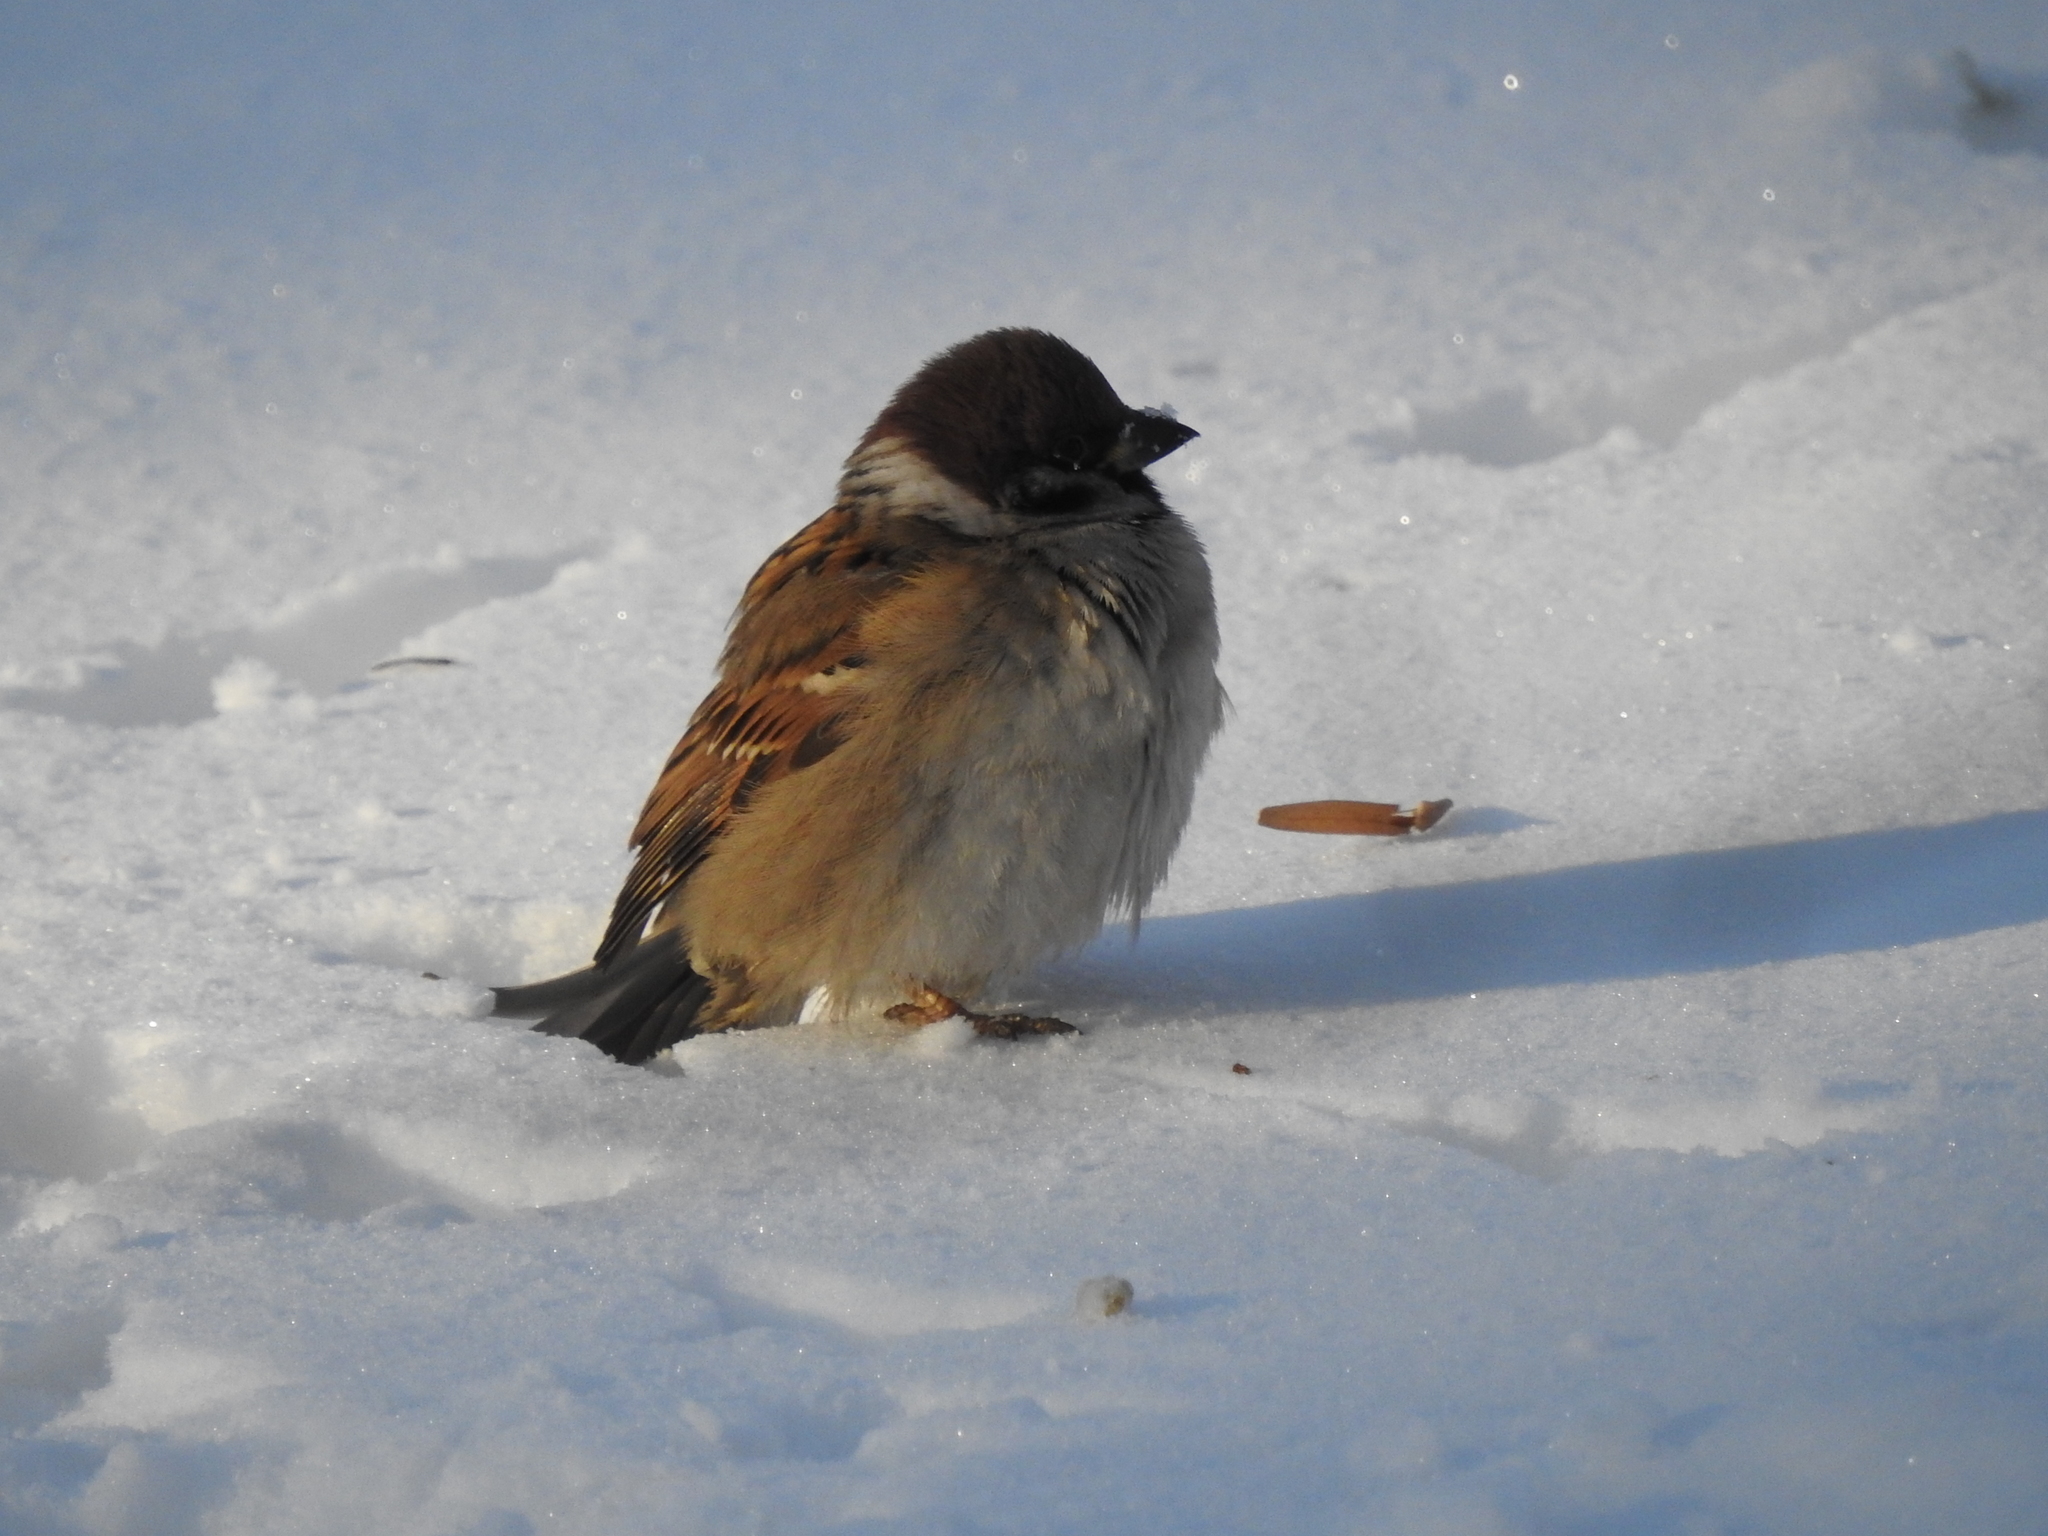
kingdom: Animalia
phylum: Chordata
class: Aves
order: Passeriformes
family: Passeridae
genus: Passer
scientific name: Passer montanus
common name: Eurasian tree sparrow
